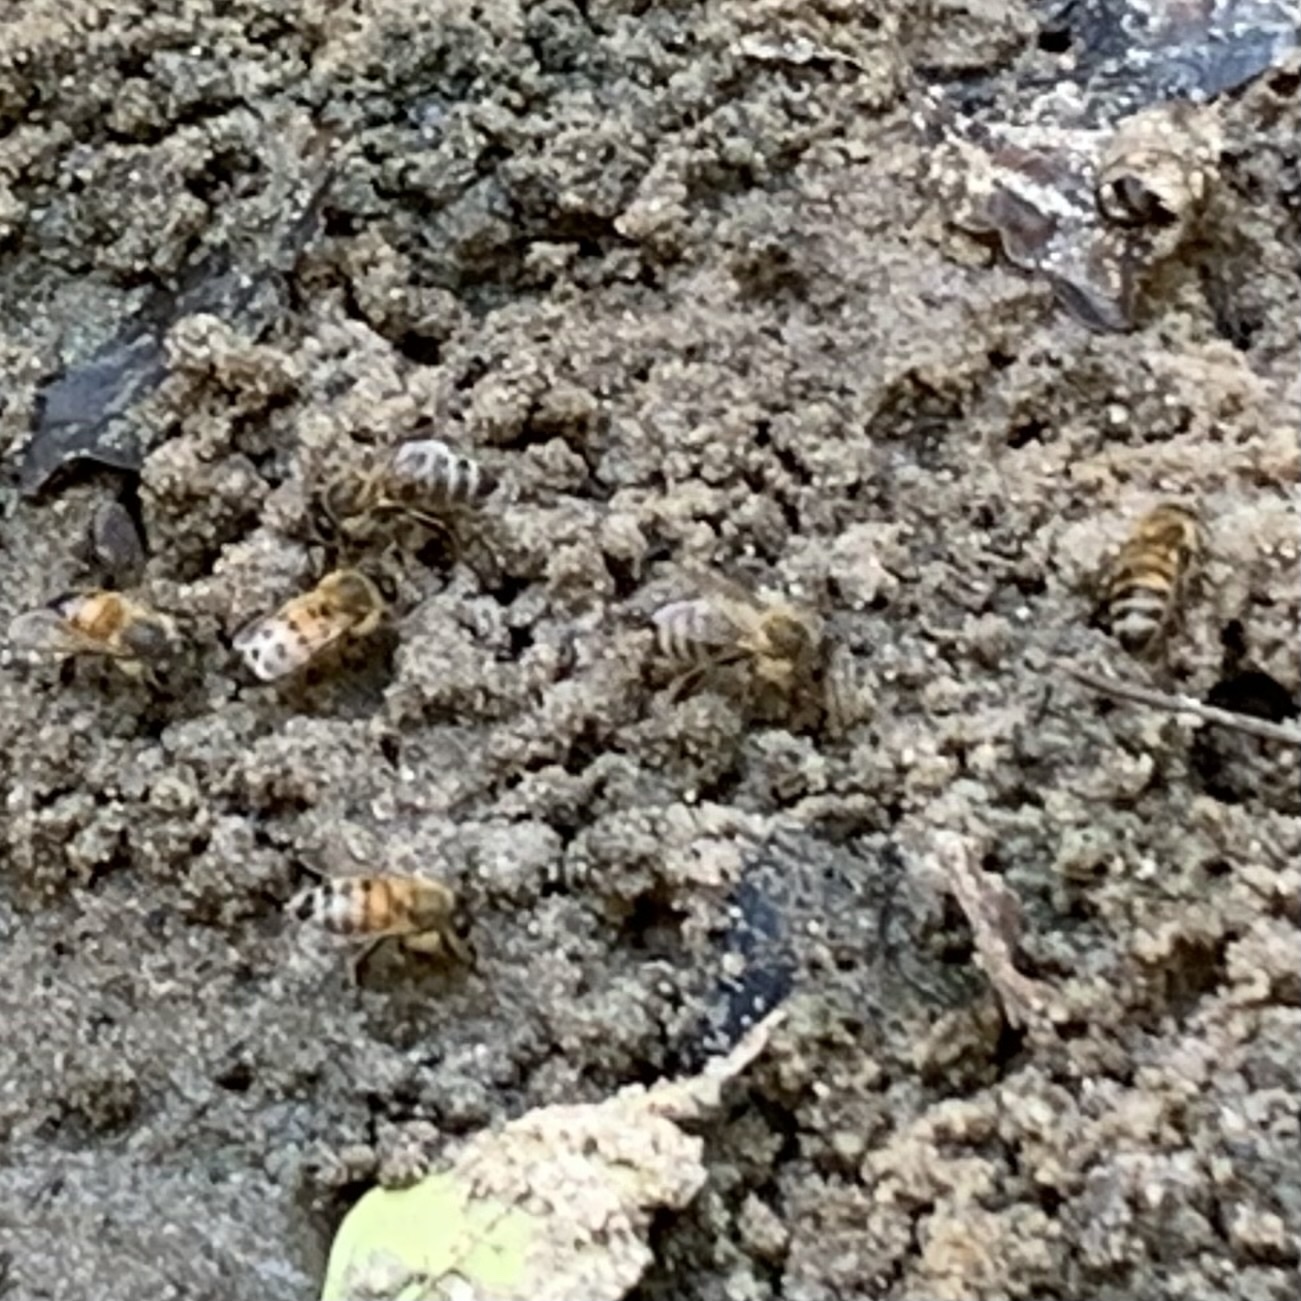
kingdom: Animalia
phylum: Arthropoda
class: Insecta
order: Hymenoptera
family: Apidae
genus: Apis
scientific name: Apis mellifera
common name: Honey bee
